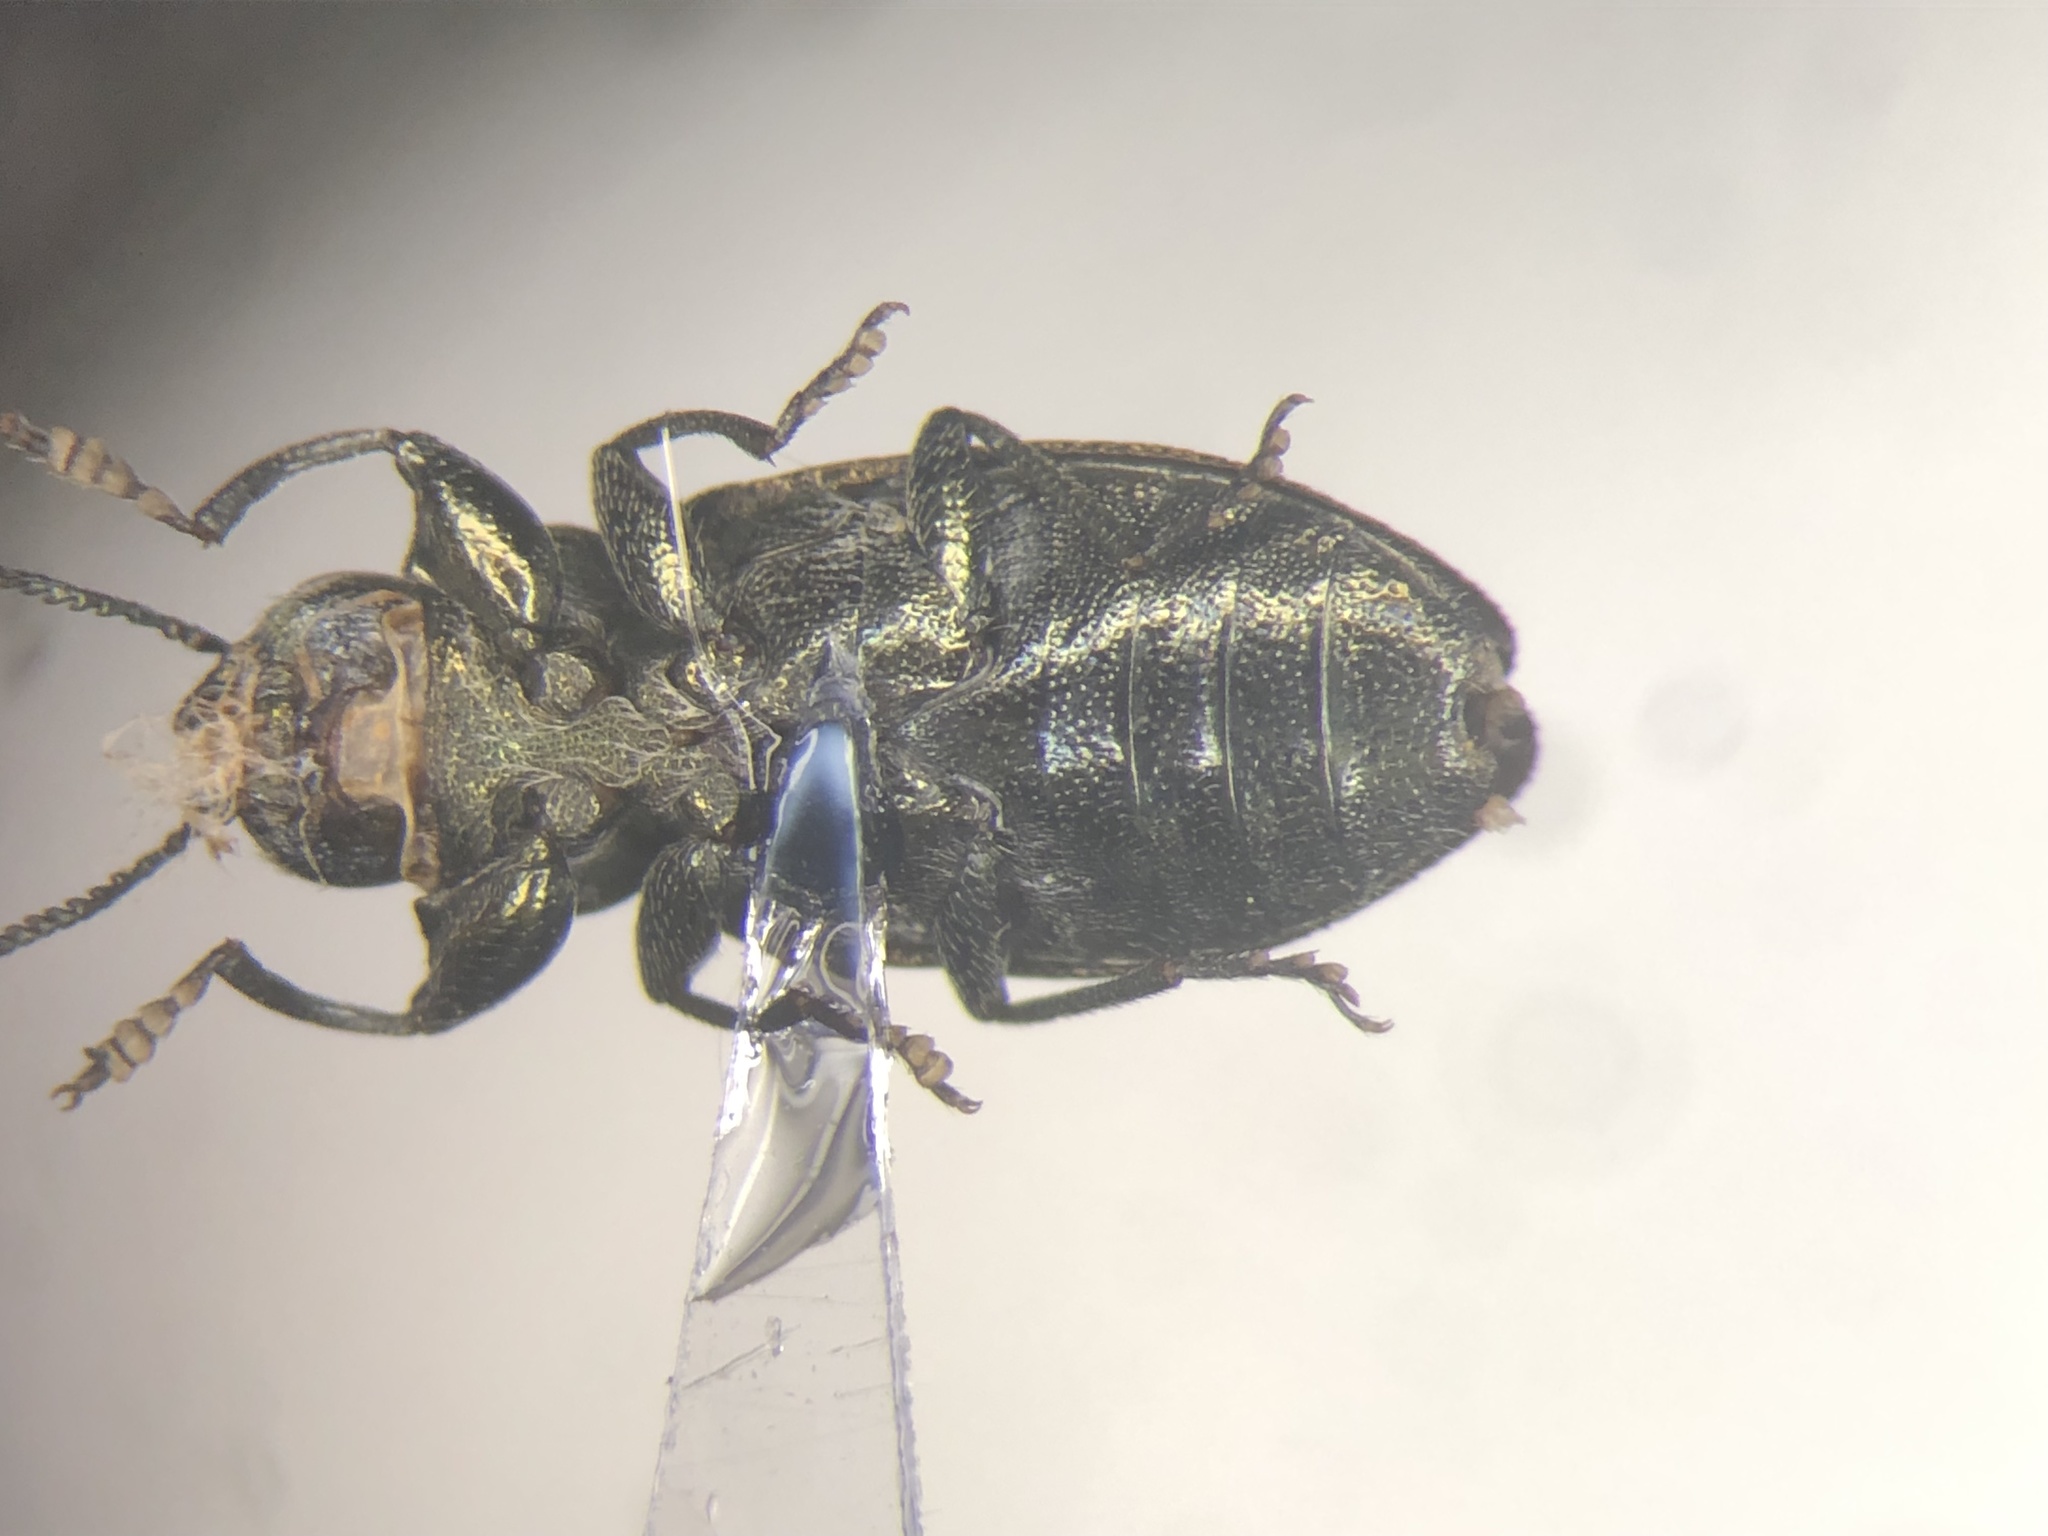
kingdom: Animalia
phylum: Arthropoda
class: Insecta
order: Coleoptera
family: Buprestidae
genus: Chrysobothris
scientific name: Chrysobothris neopusilla
